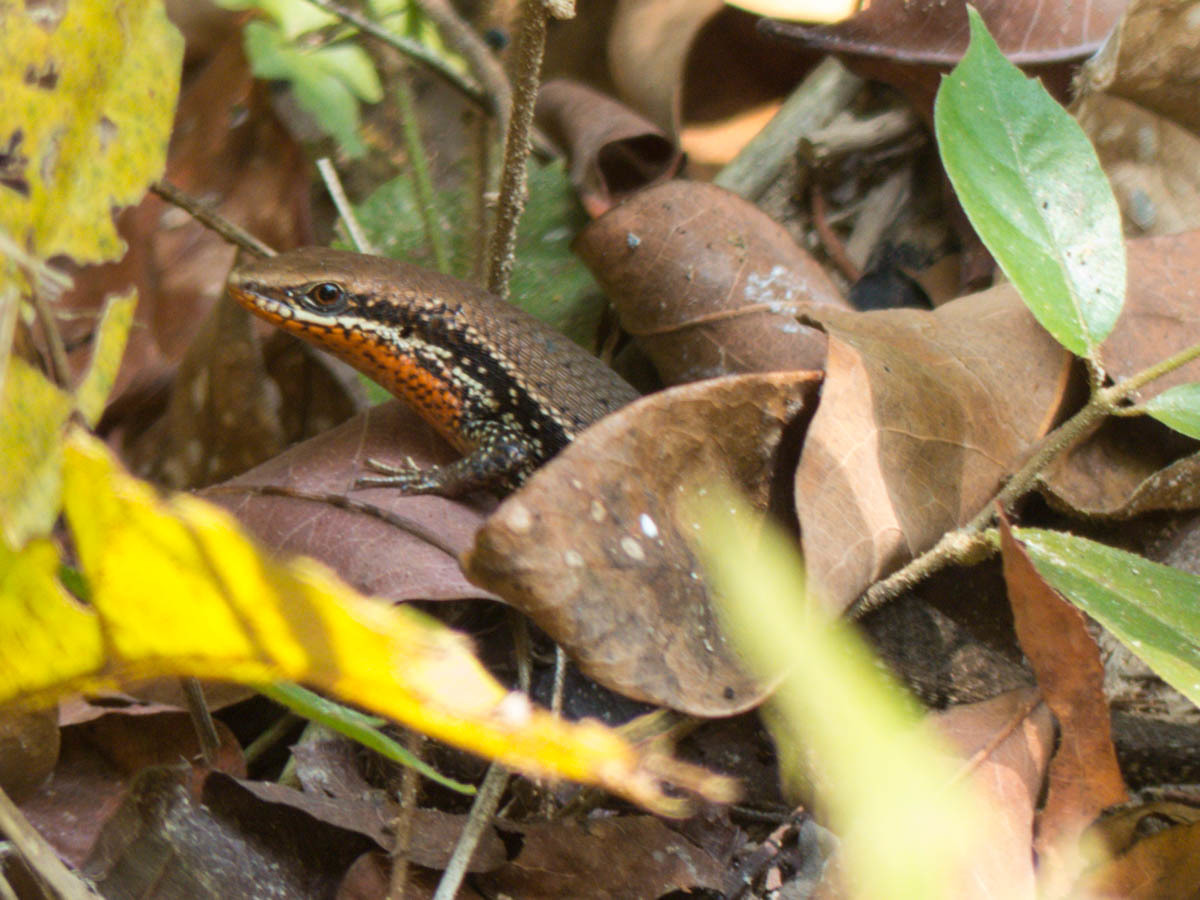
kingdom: Animalia
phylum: Chordata
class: Squamata
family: Scincidae
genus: Eutropis
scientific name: Eutropis macularia
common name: Bronze mabuya
